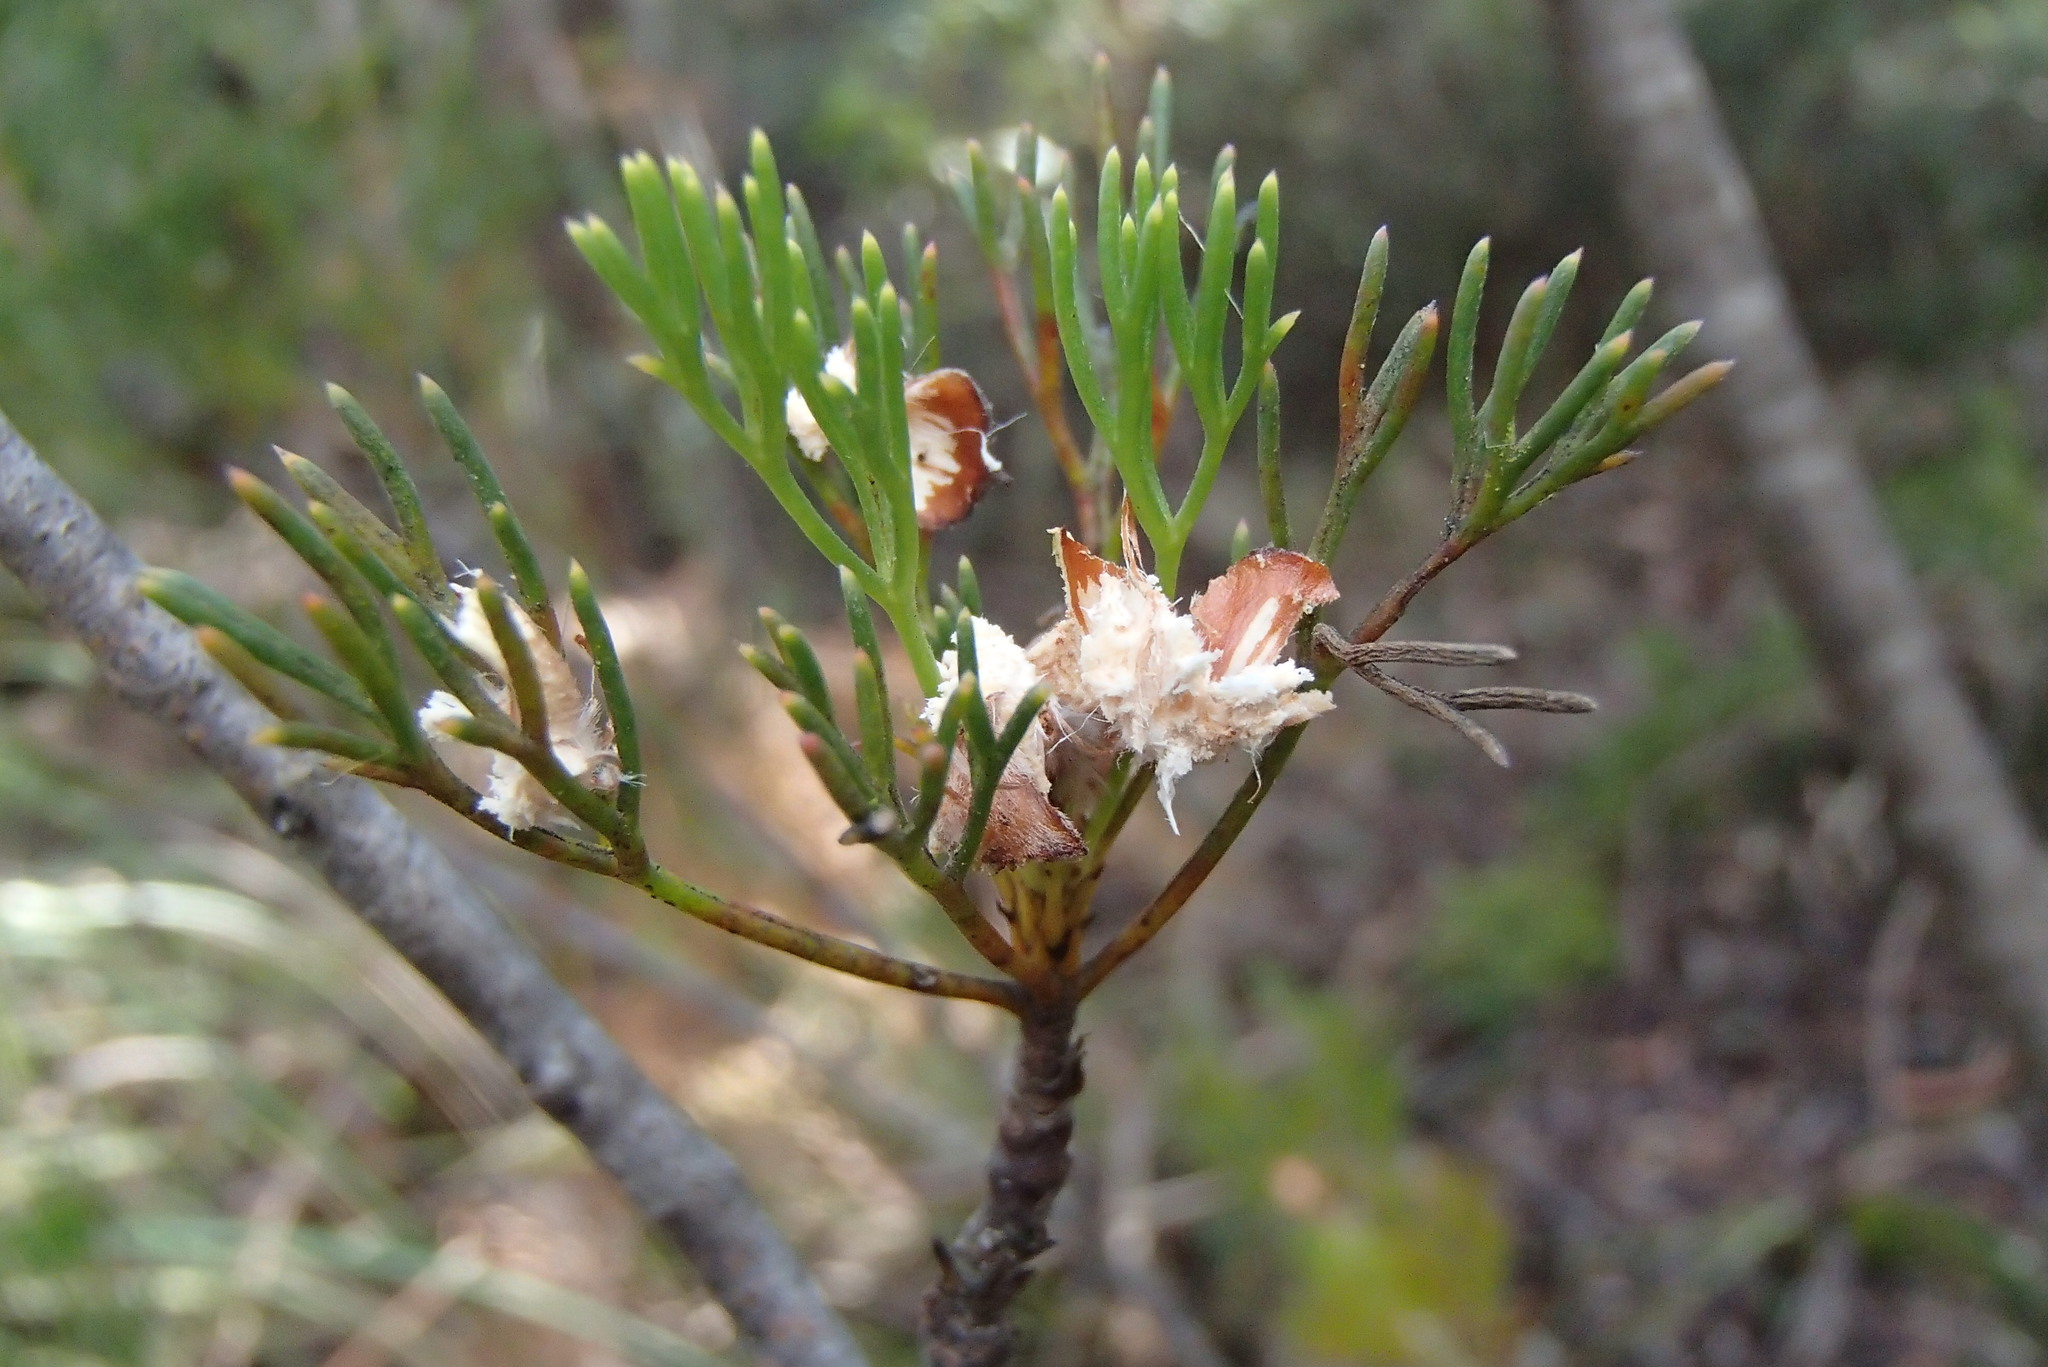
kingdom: Animalia
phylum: Chordata
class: Aves
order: Psittaciformes
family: Psittacidae
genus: Callocephalon
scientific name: Callocephalon fimbriatum
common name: Gang-gang cockatoo
